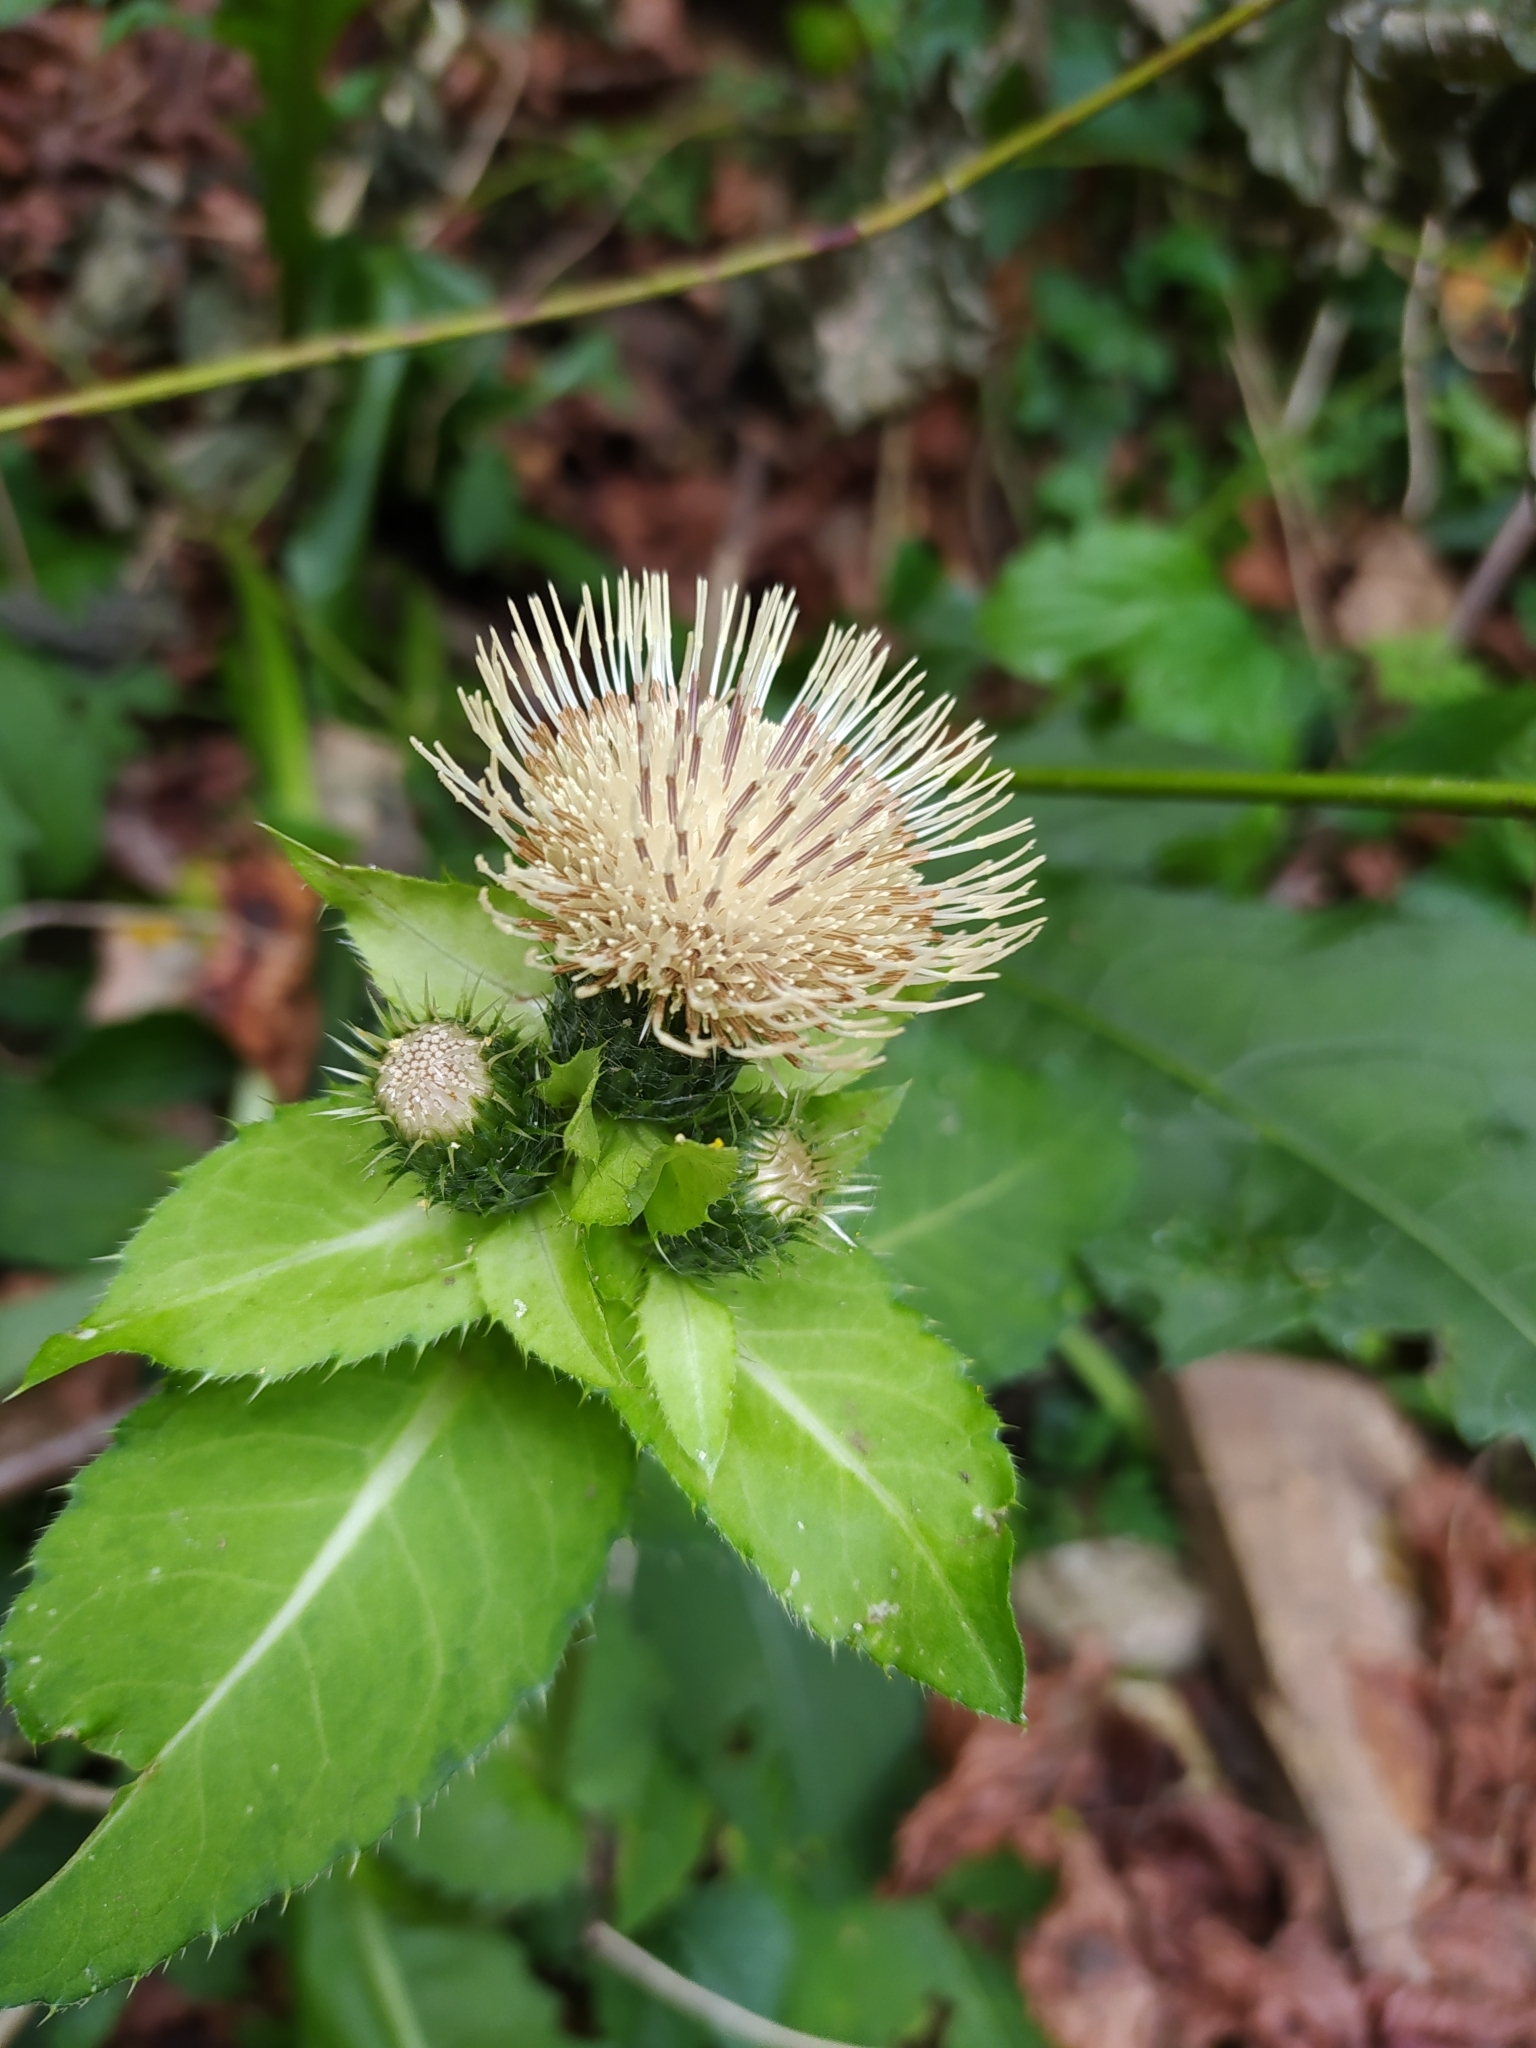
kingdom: Plantae
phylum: Tracheophyta
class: Magnoliopsida
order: Asterales
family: Asteraceae
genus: Cirsium
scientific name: Cirsium oleraceum
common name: Cabbage thistle
